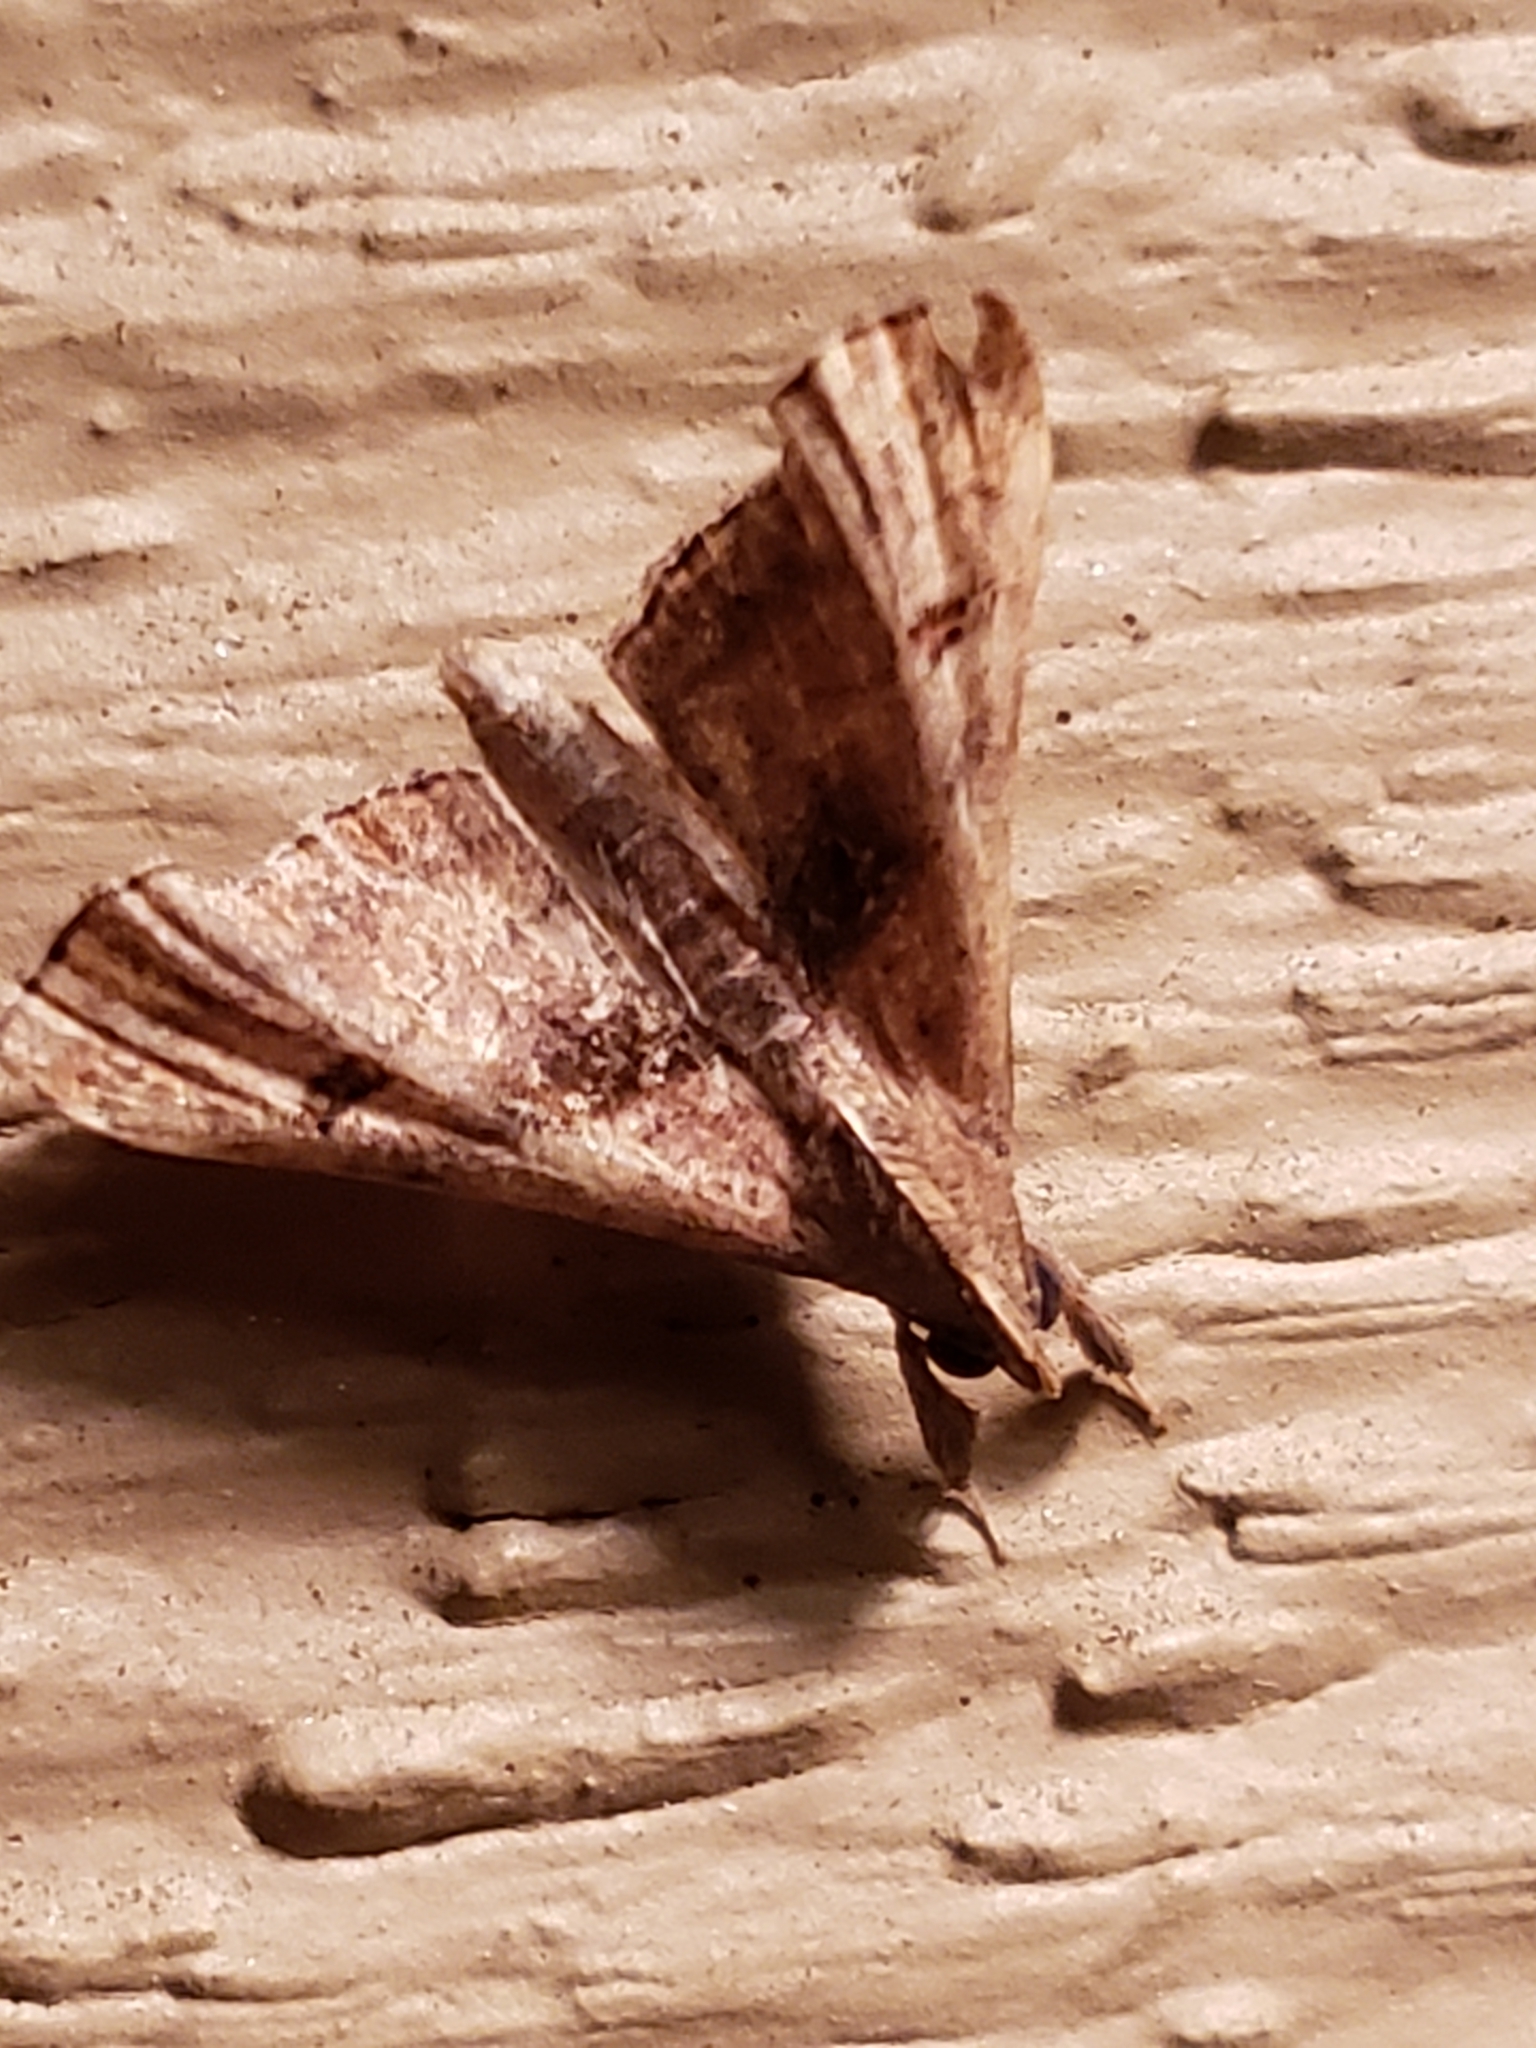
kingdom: Animalia
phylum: Arthropoda
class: Insecta
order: Lepidoptera
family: Erebidae
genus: Palthis
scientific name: Palthis asopialis
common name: Faint-spotted palthis moth
